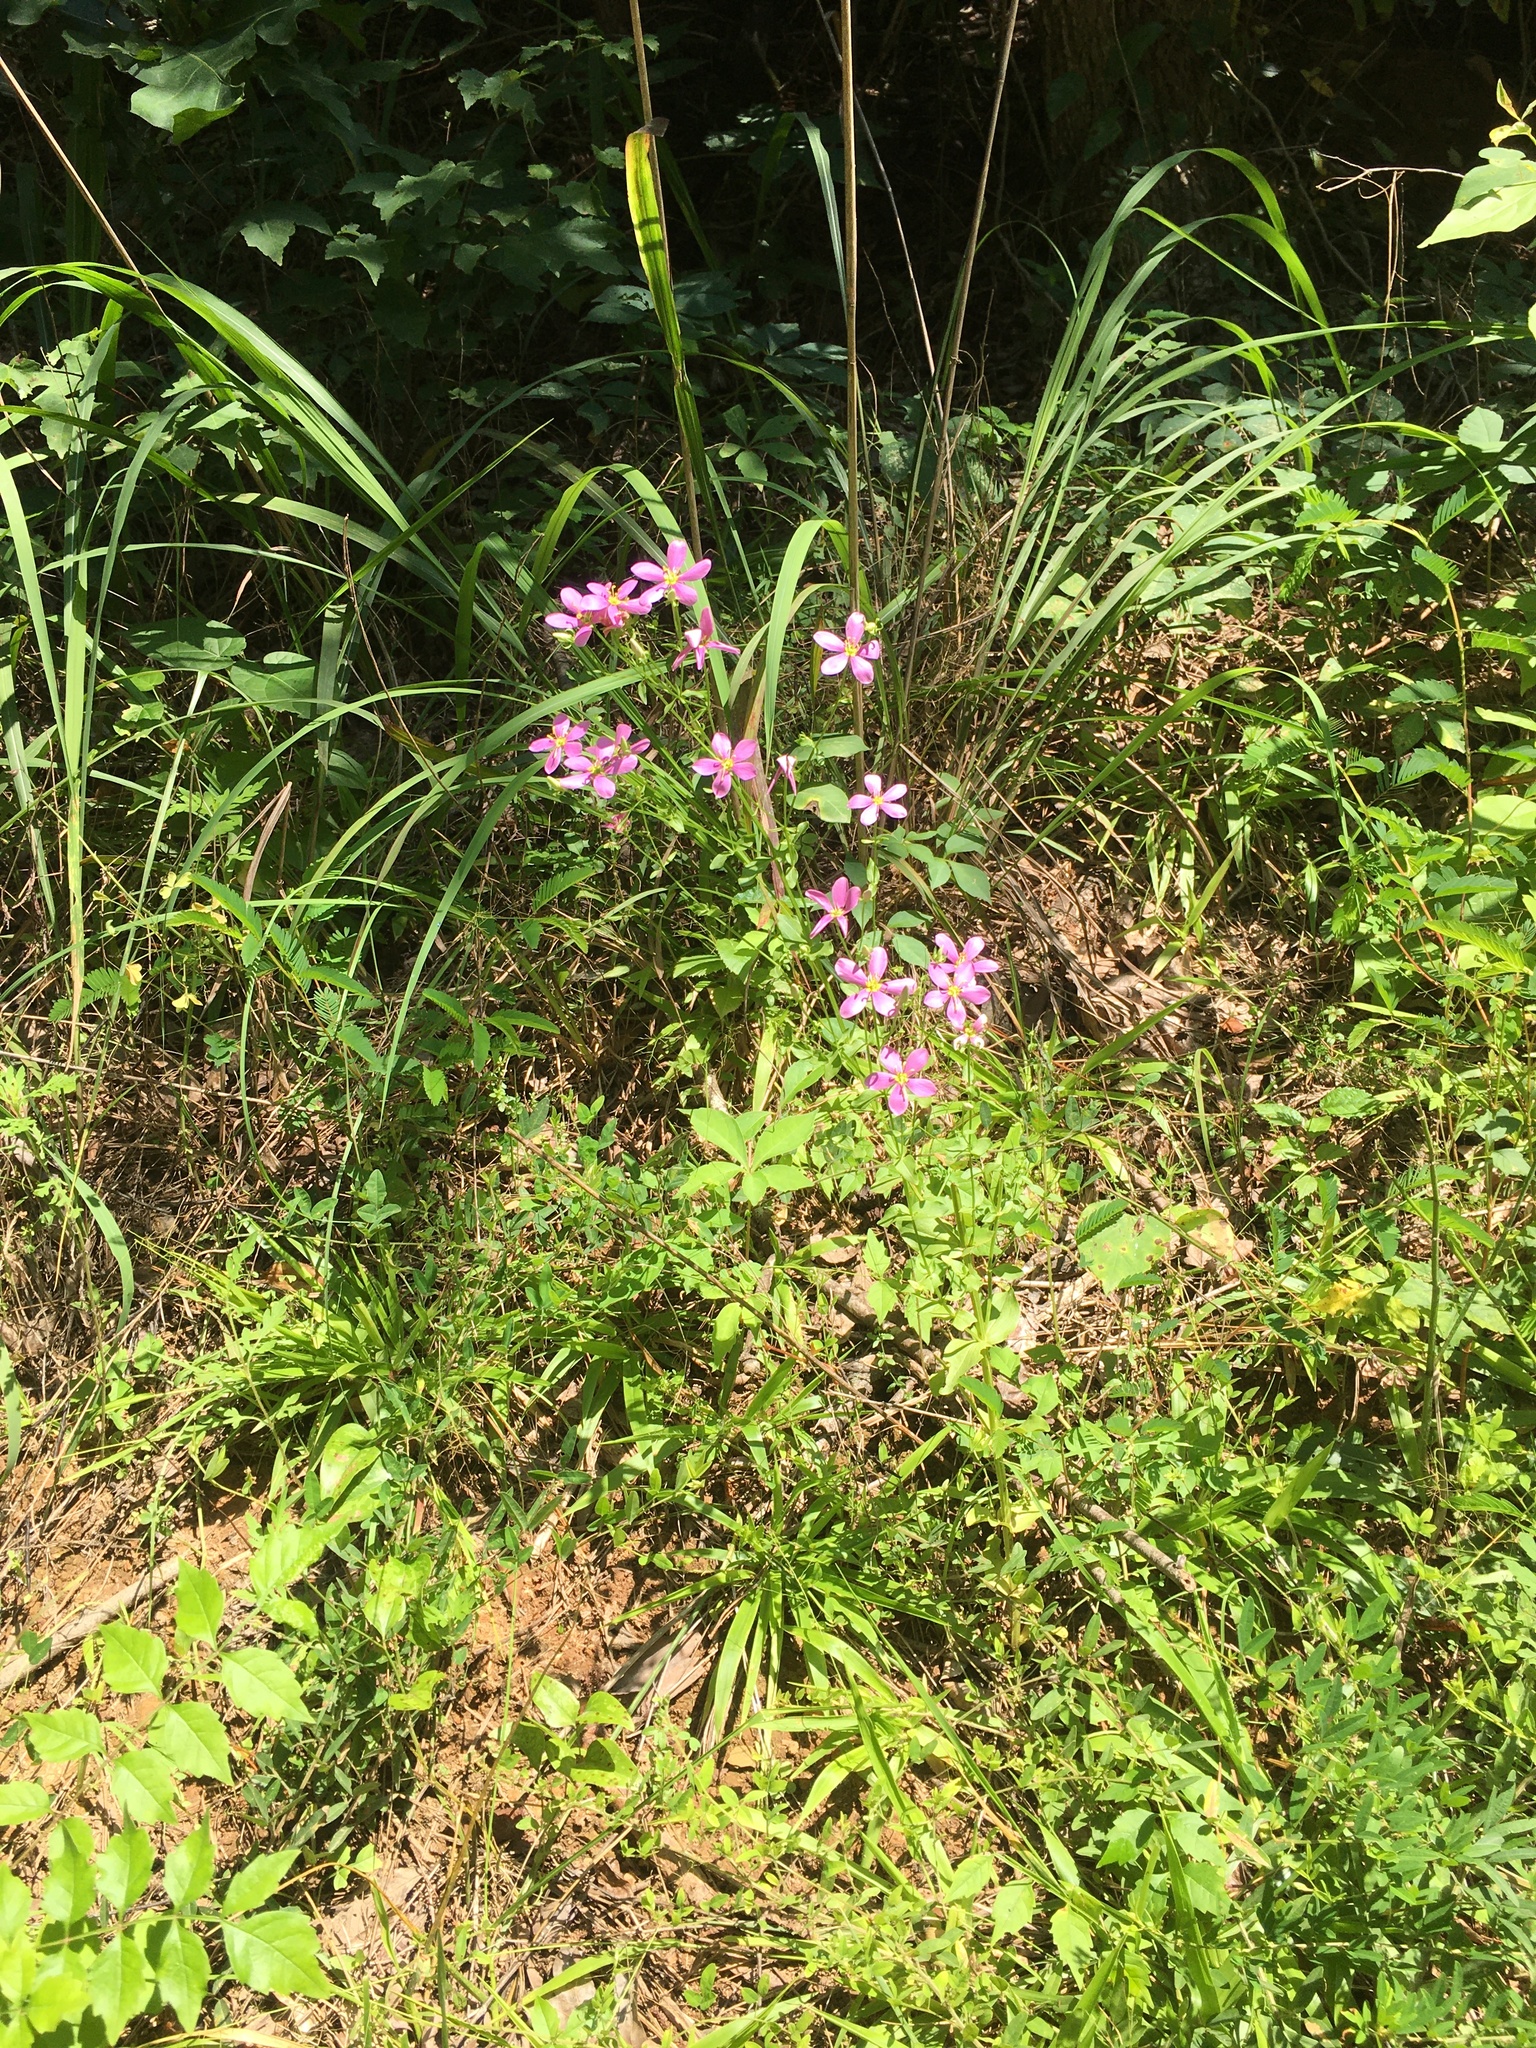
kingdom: Plantae
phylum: Tracheophyta
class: Magnoliopsida
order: Gentianales
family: Gentianaceae
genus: Sabatia
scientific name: Sabatia angularis
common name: Rose-pink
